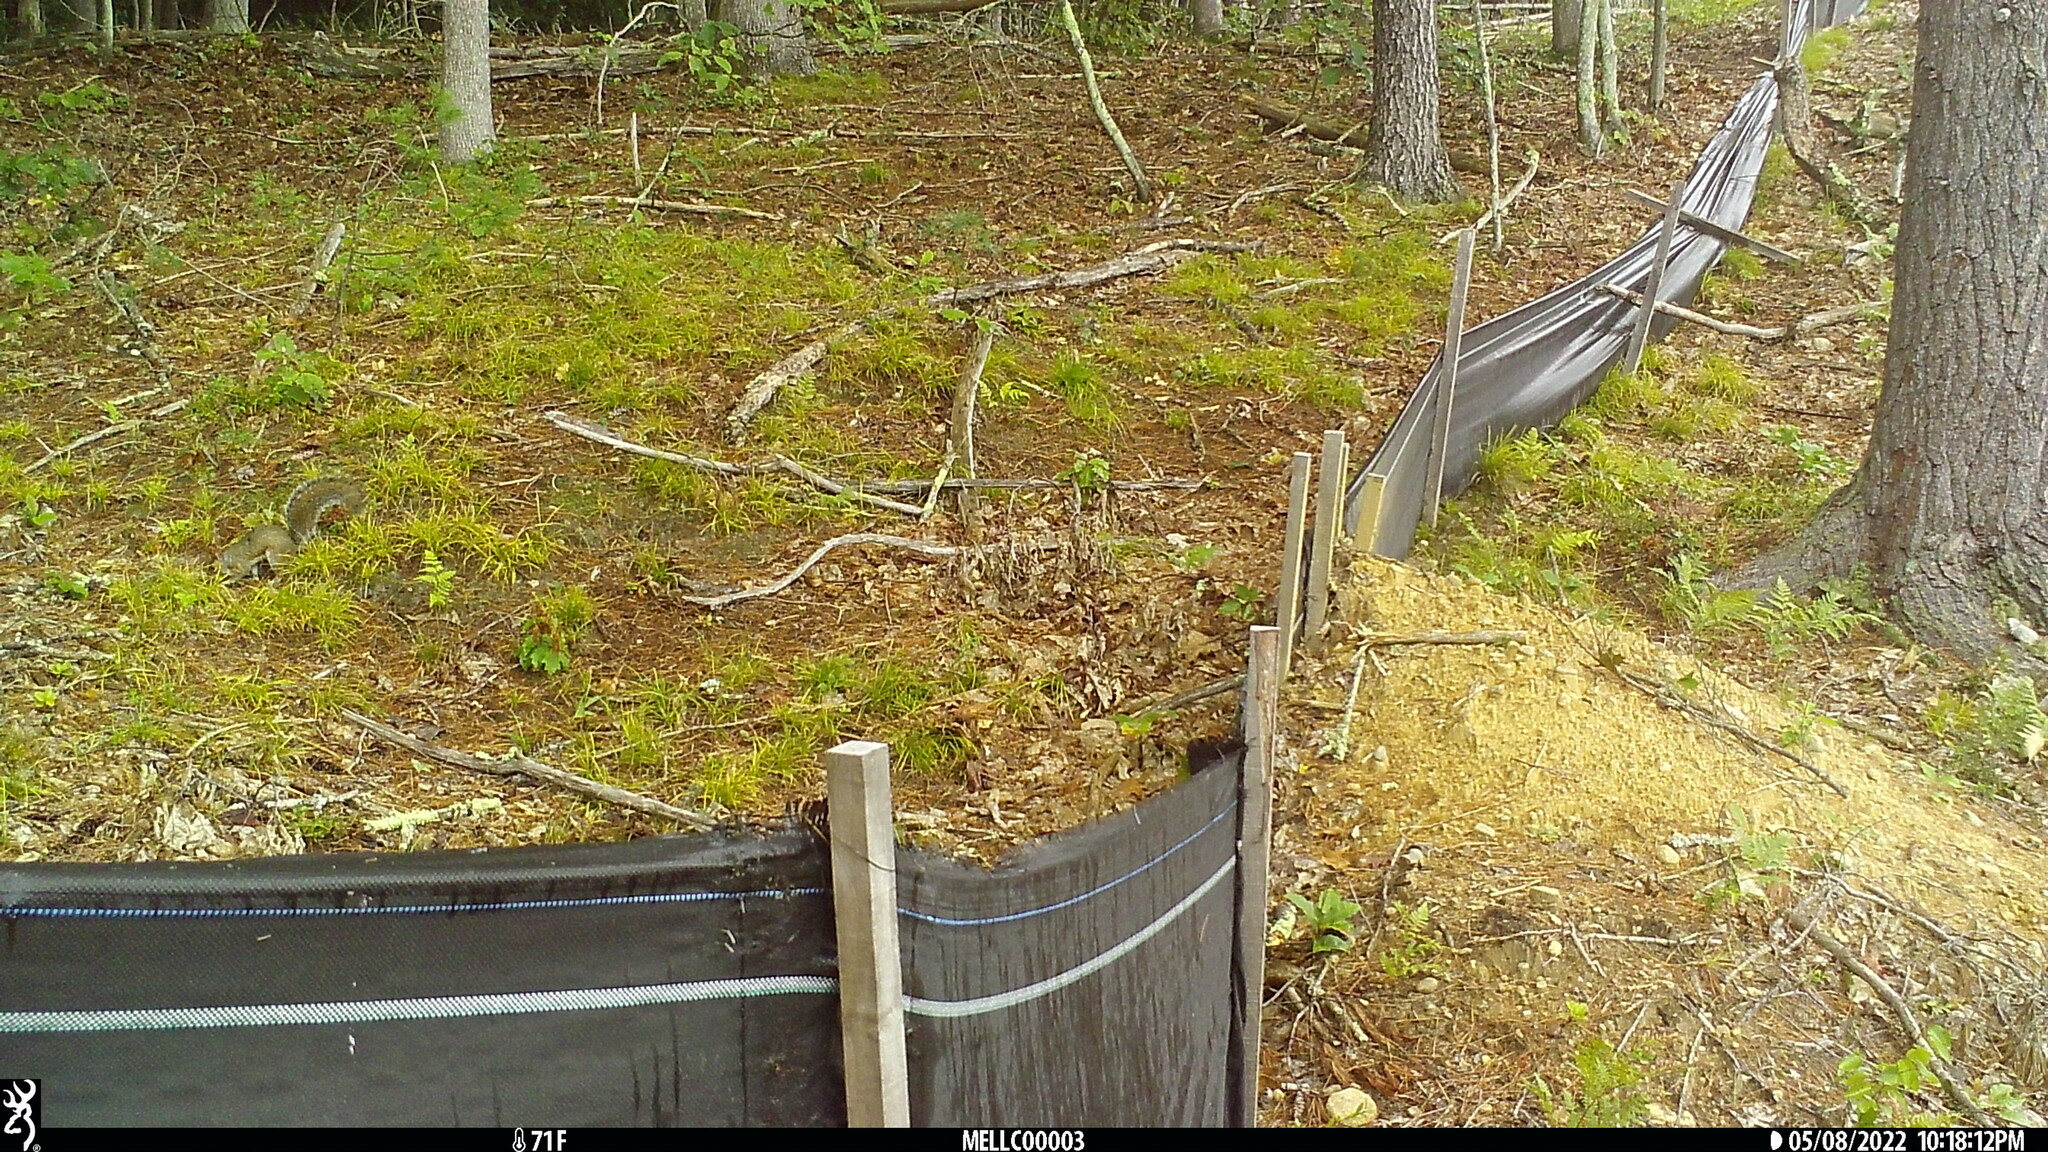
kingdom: Animalia
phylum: Chordata
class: Mammalia
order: Rodentia
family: Sciuridae
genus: Sciurus
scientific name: Sciurus carolinensis
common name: Eastern gray squirrel
